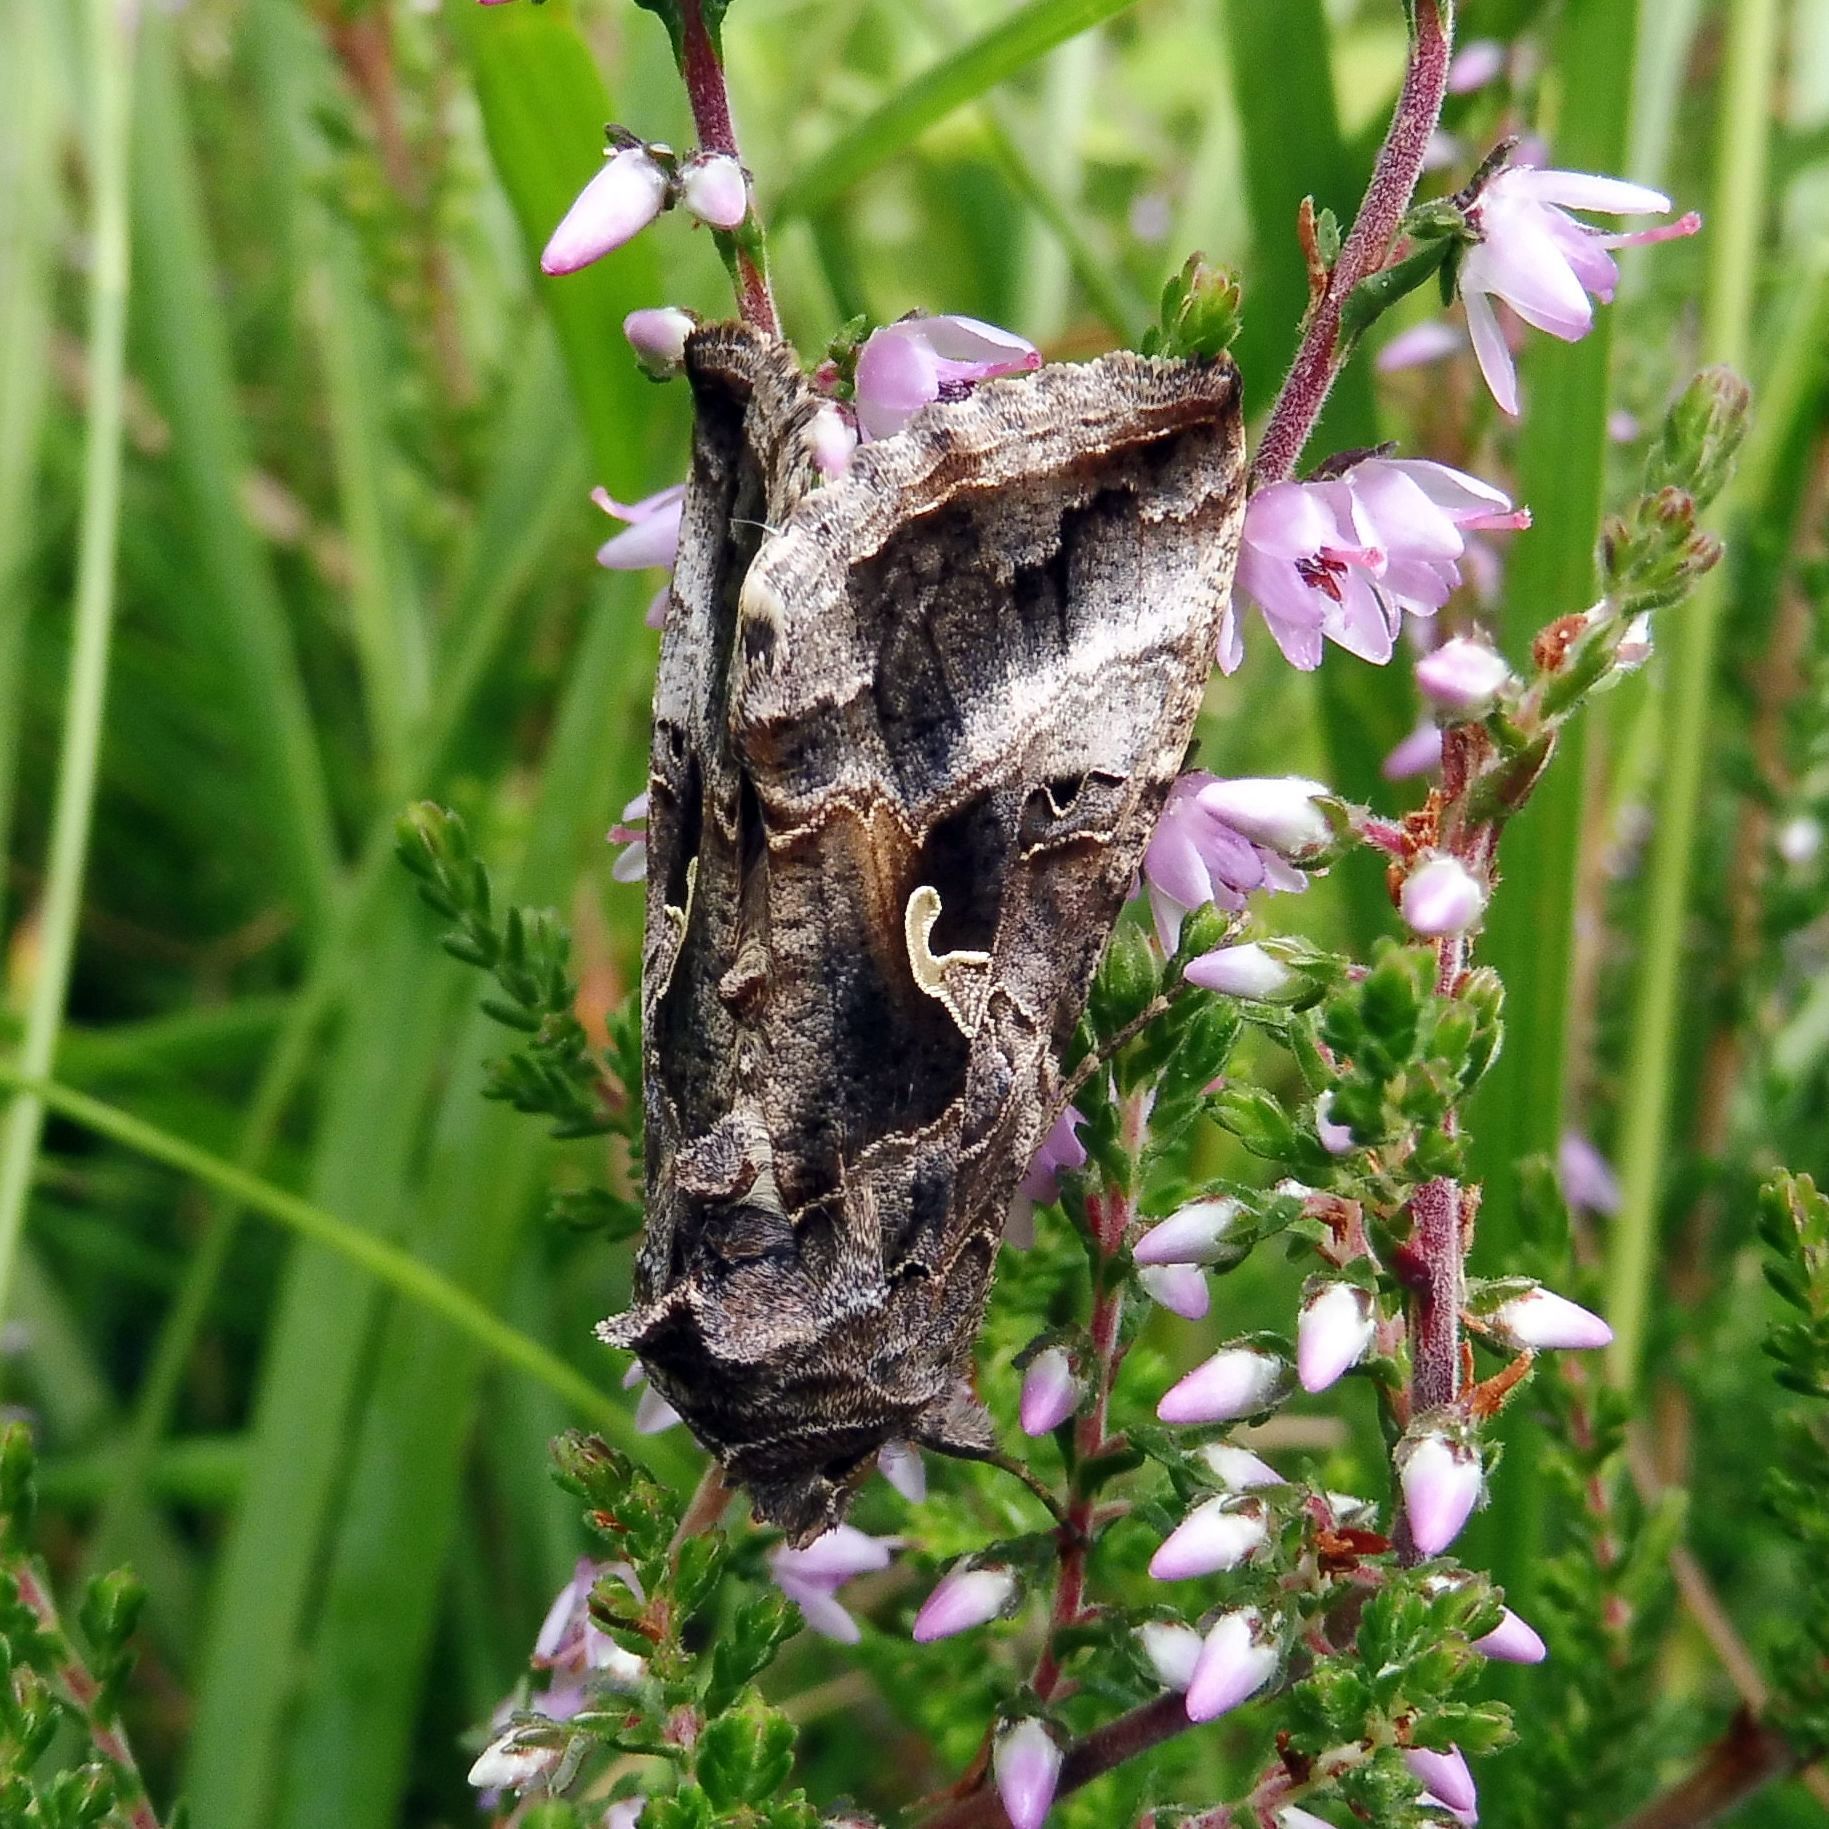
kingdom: Animalia
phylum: Arthropoda
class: Insecta
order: Lepidoptera
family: Noctuidae
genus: Autographa
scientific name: Autographa gamma
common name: Silver y
